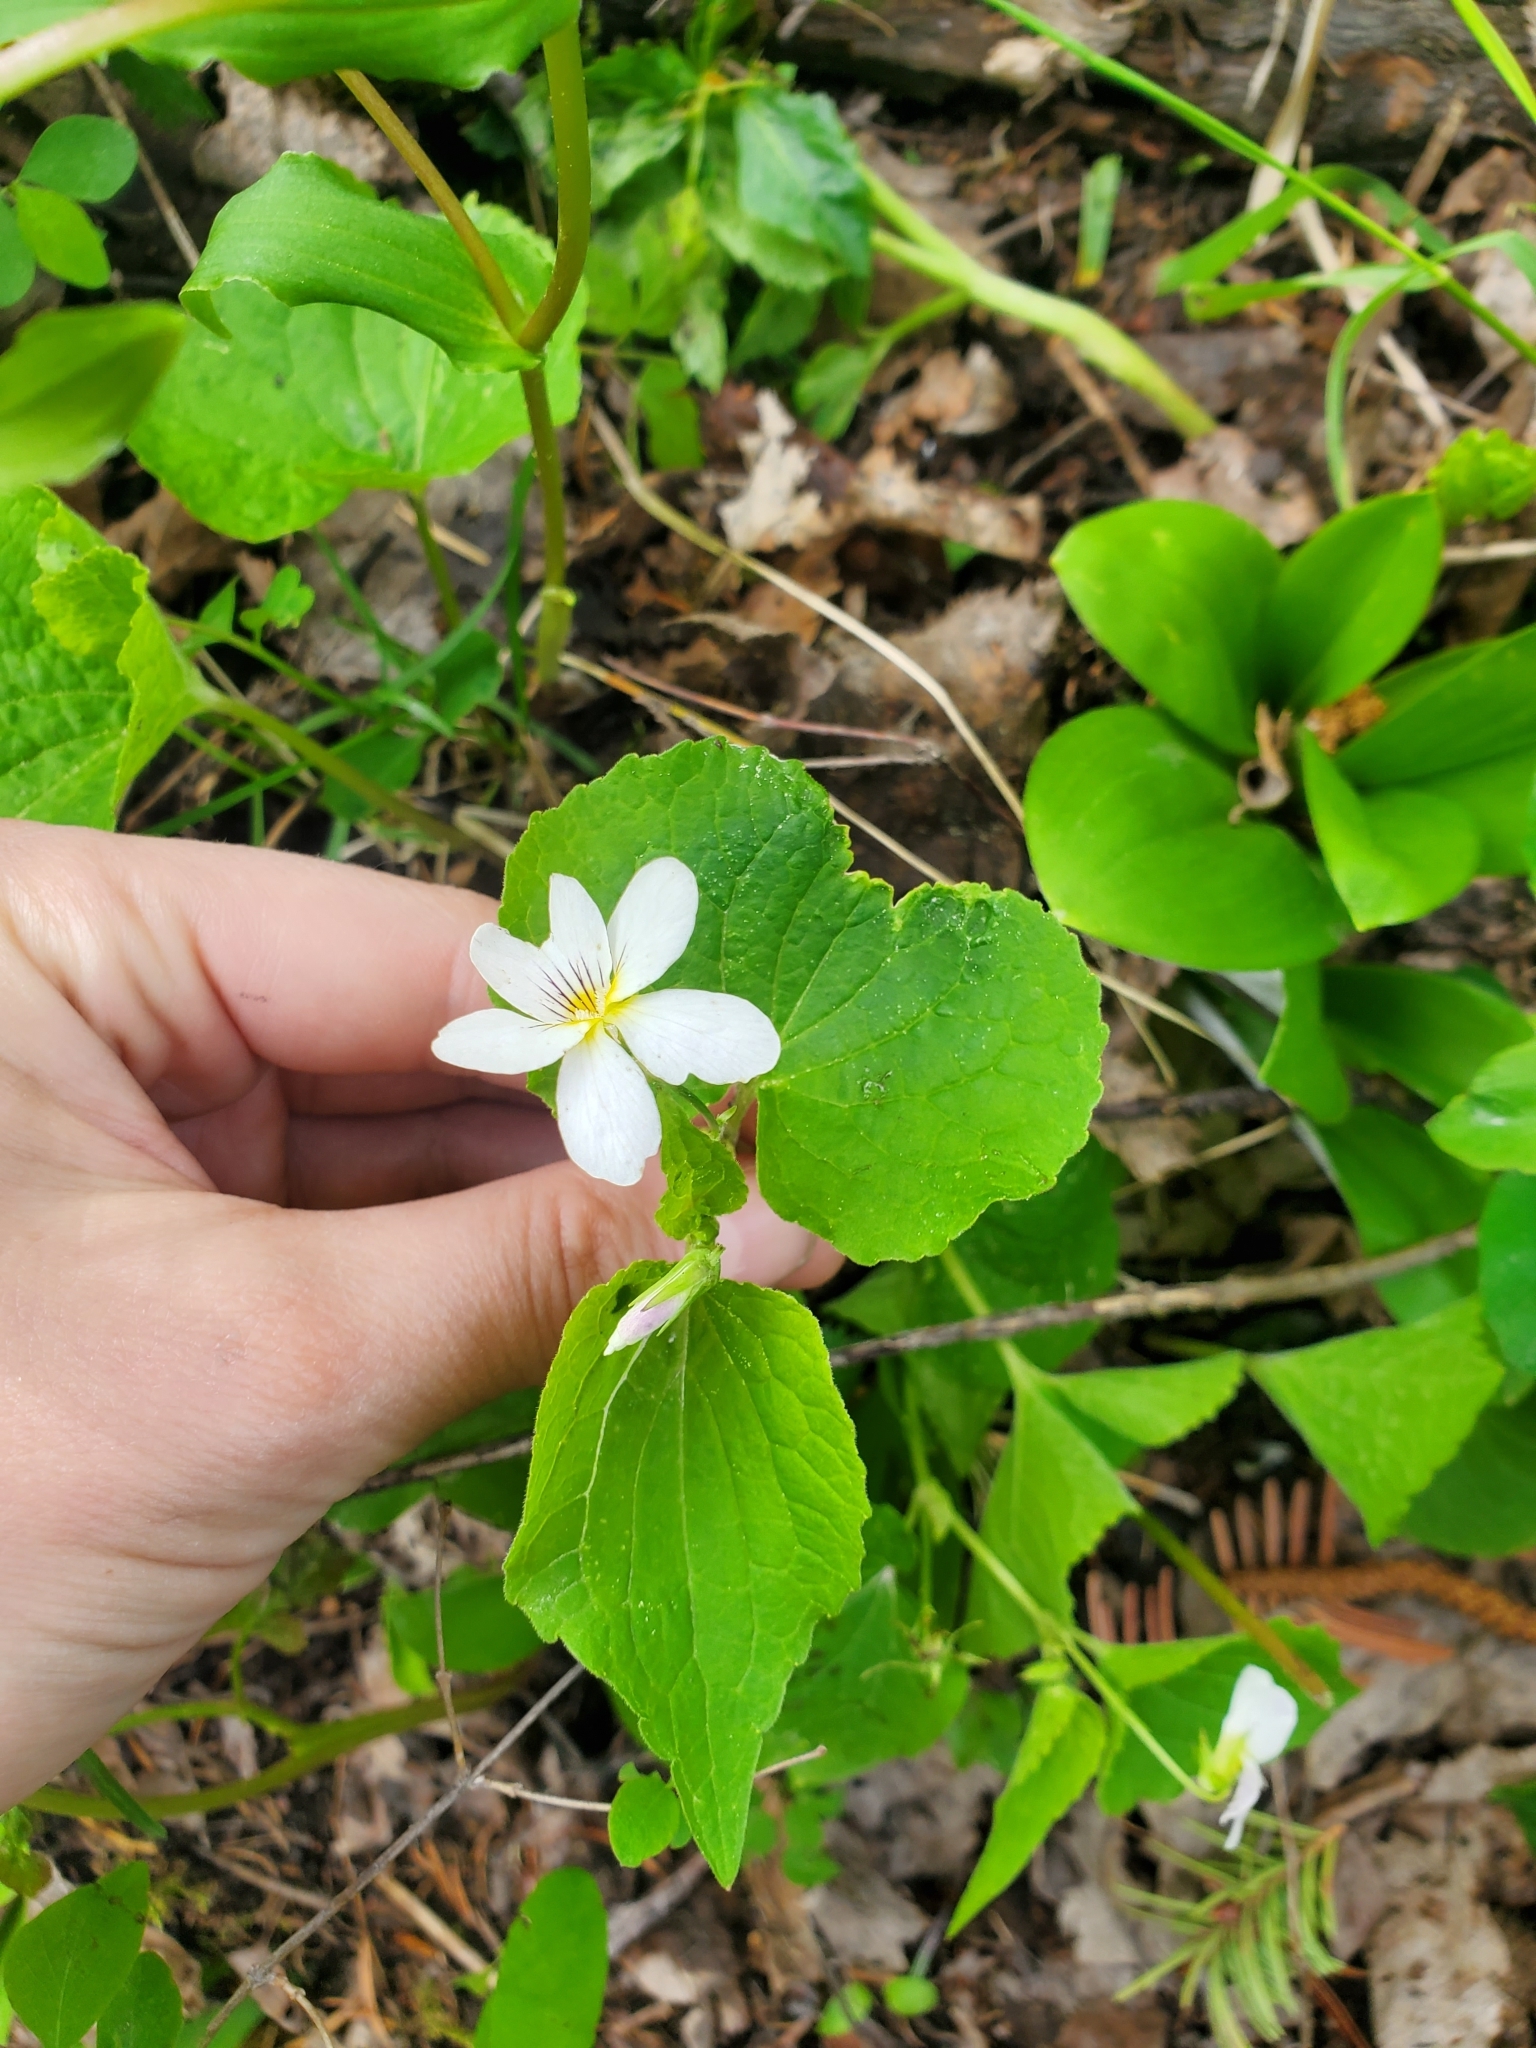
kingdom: Plantae
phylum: Tracheophyta
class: Magnoliopsida
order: Malpighiales
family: Violaceae
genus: Viola
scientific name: Viola canadensis
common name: Canada violet
